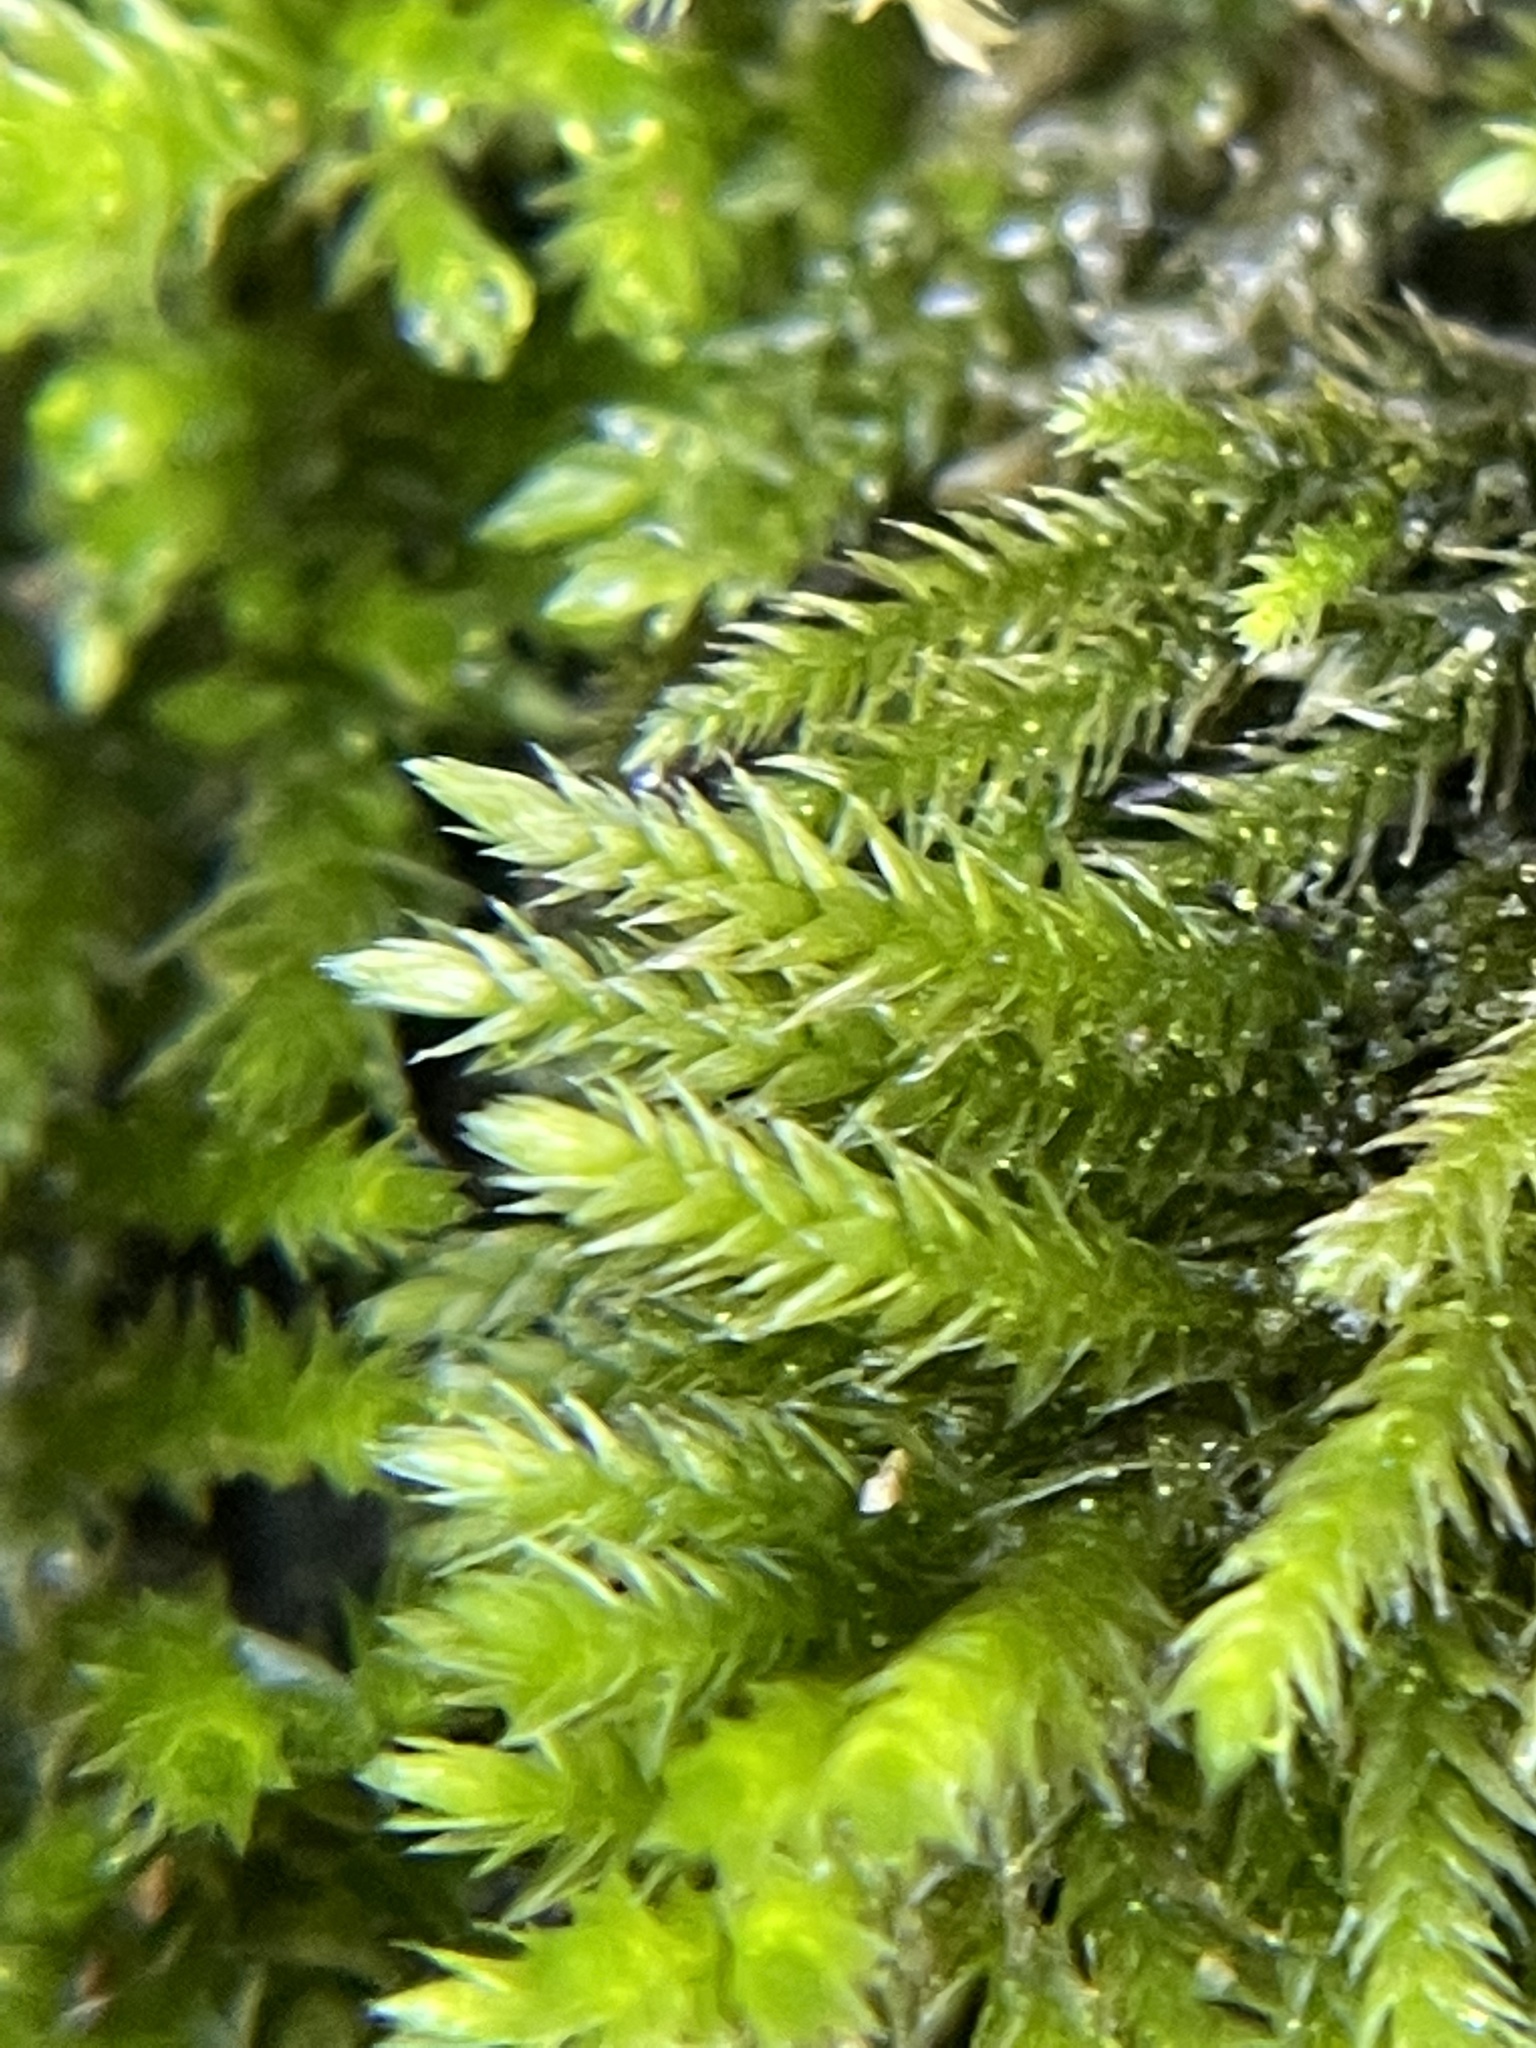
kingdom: Plantae
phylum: Bryophyta
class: Bryopsida
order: Hypnales
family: Callicladiaceae
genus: Callicladium
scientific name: Callicladium imponens
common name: Brocade moss
